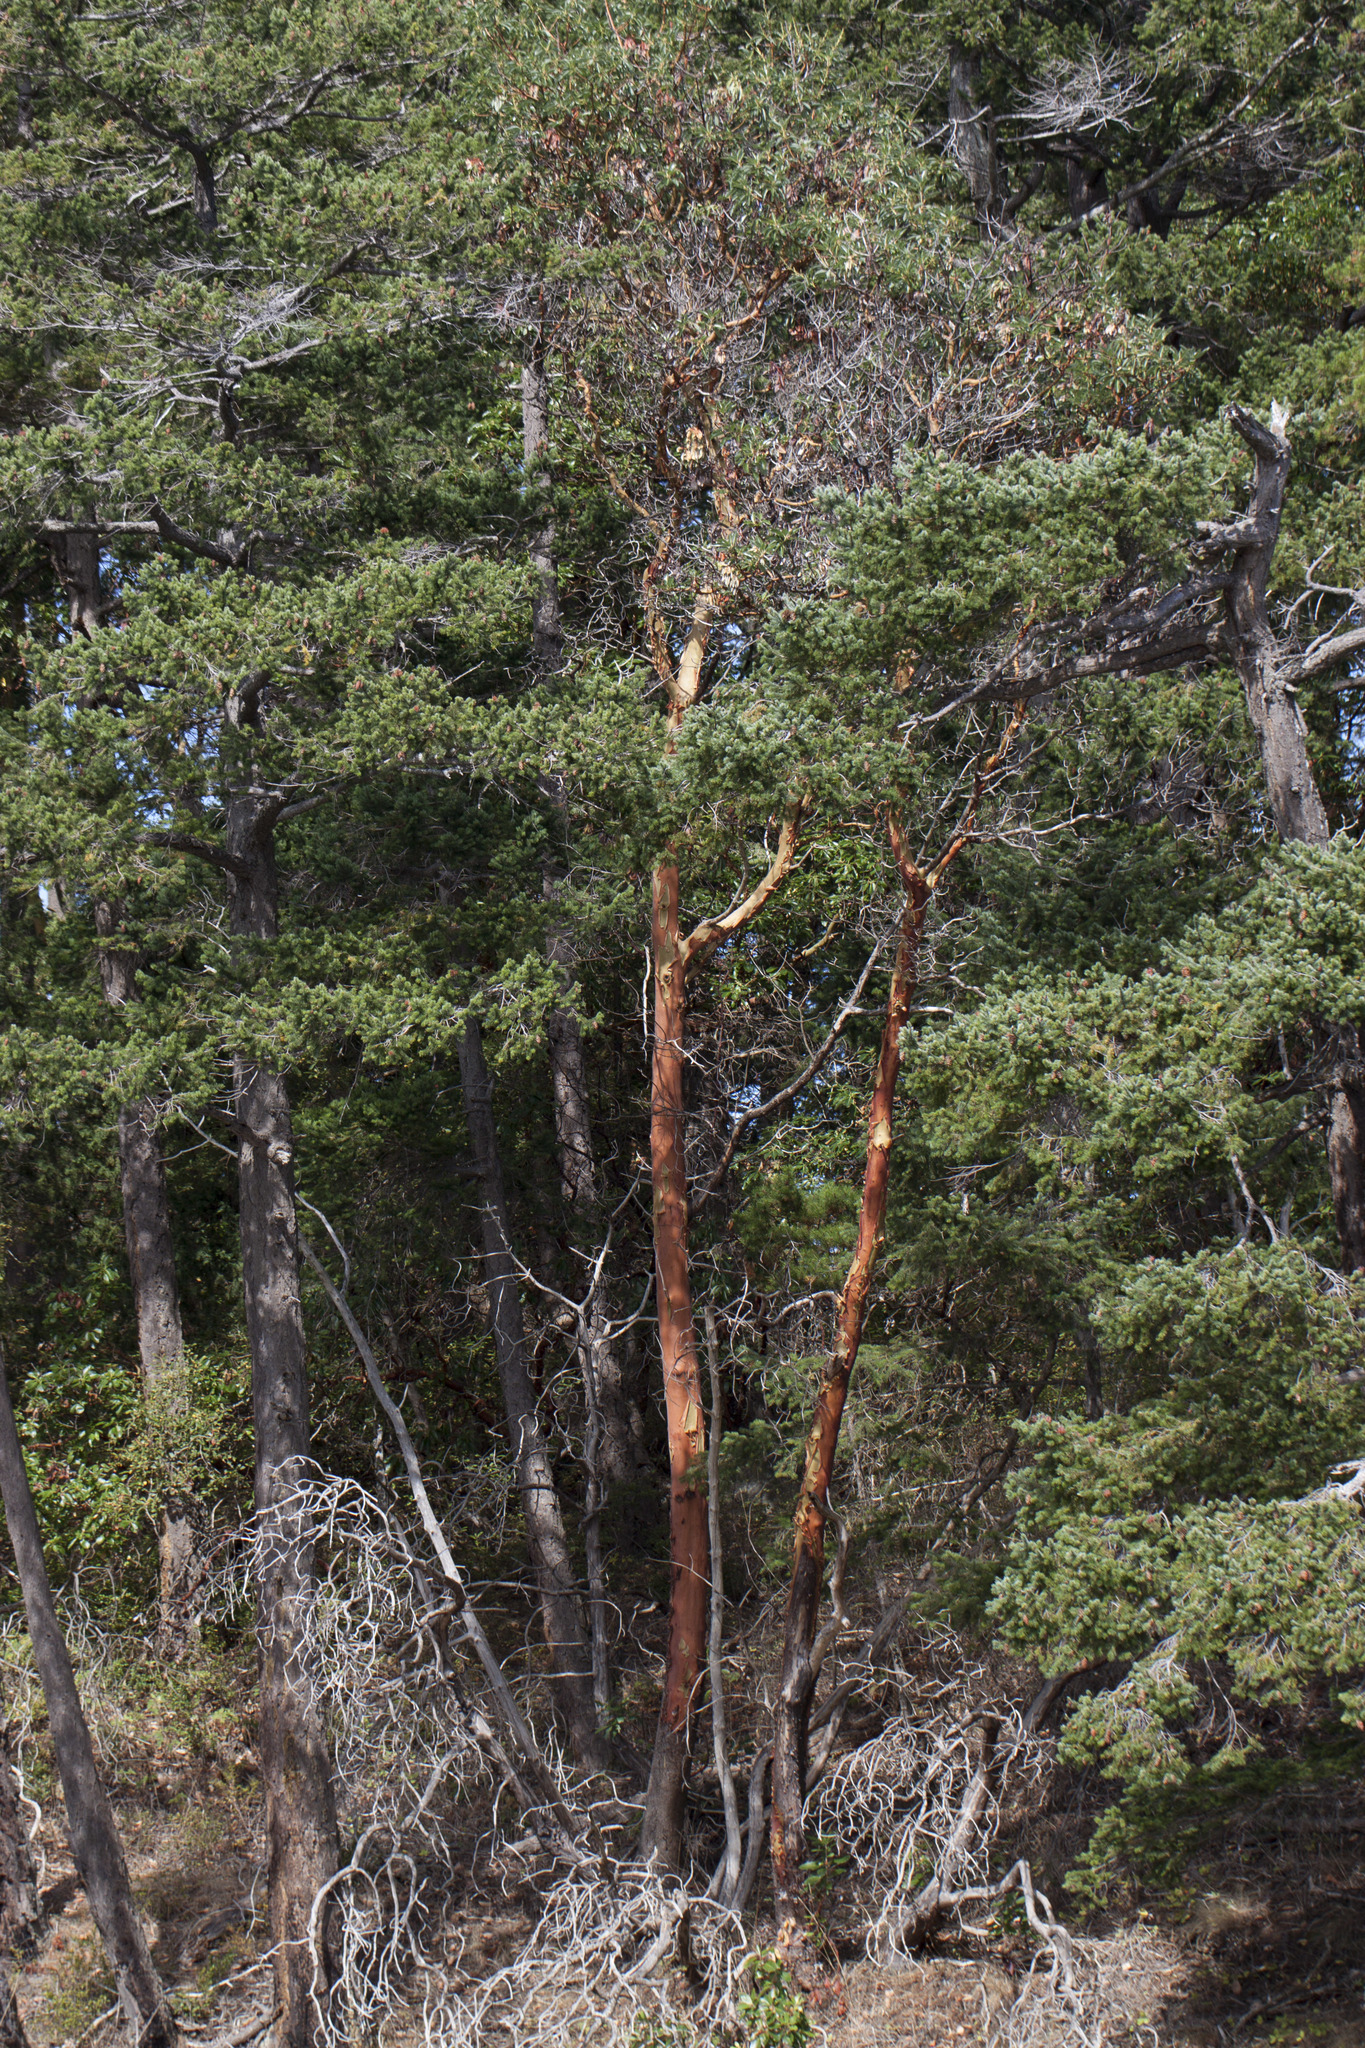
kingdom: Plantae
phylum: Tracheophyta
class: Magnoliopsida
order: Ericales
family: Ericaceae
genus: Arbutus
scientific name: Arbutus menziesii
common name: Pacific madrone
